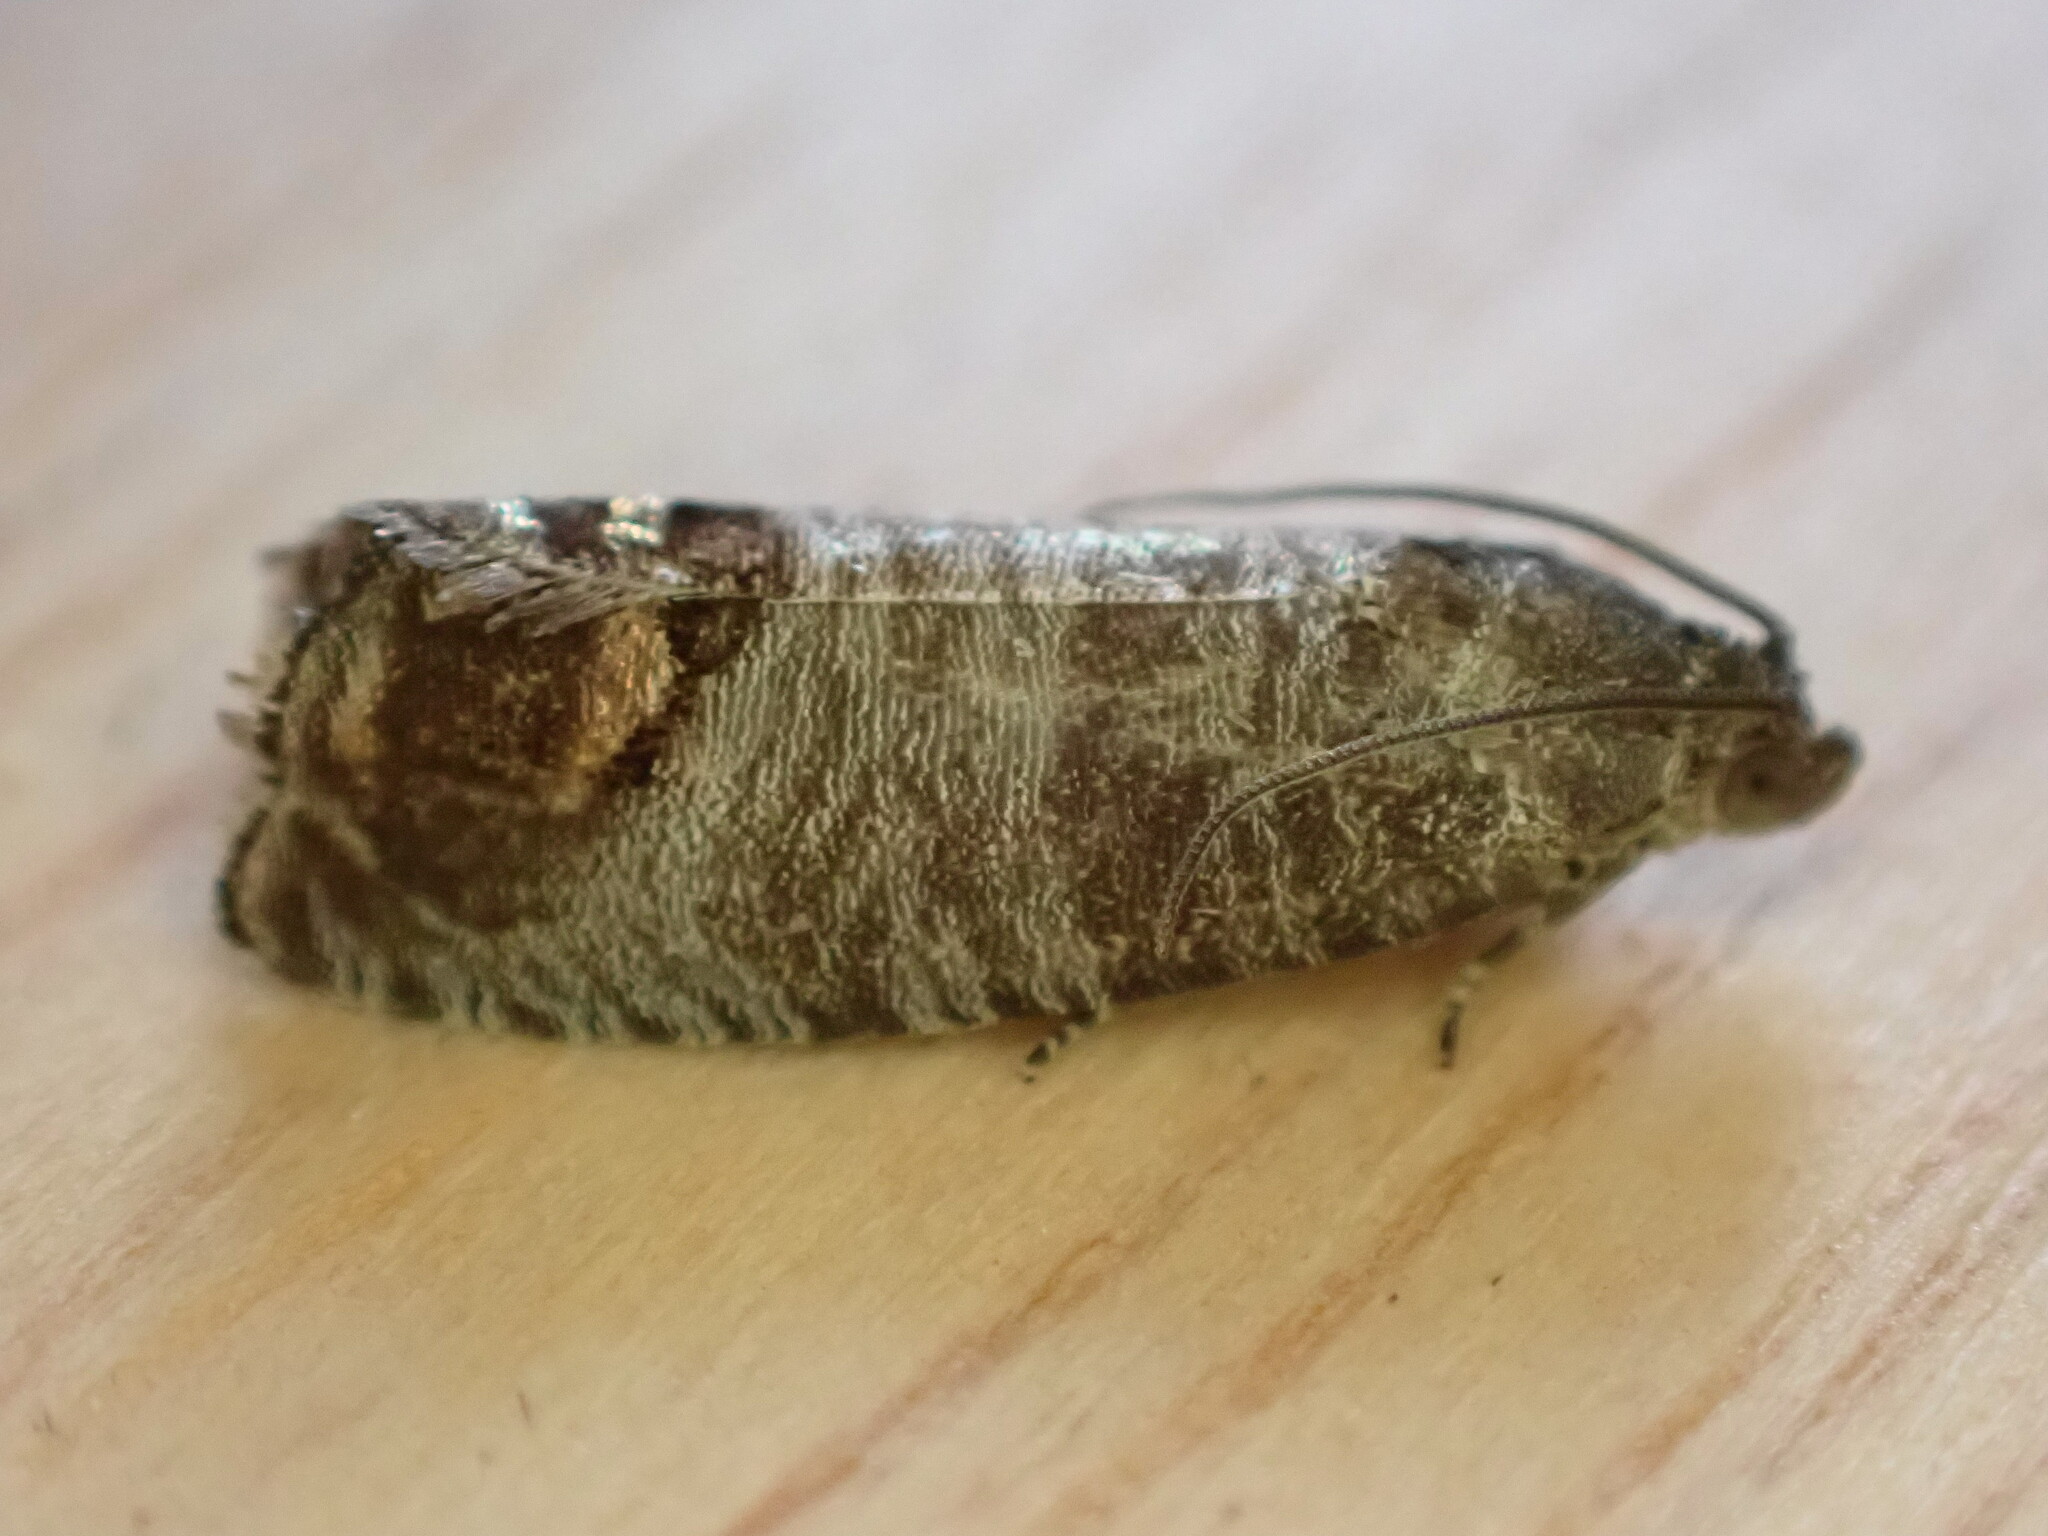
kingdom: Animalia
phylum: Arthropoda
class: Insecta
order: Lepidoptera
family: Tortricidae
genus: Cydia
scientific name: Cydia pomonella
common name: Codling moth
